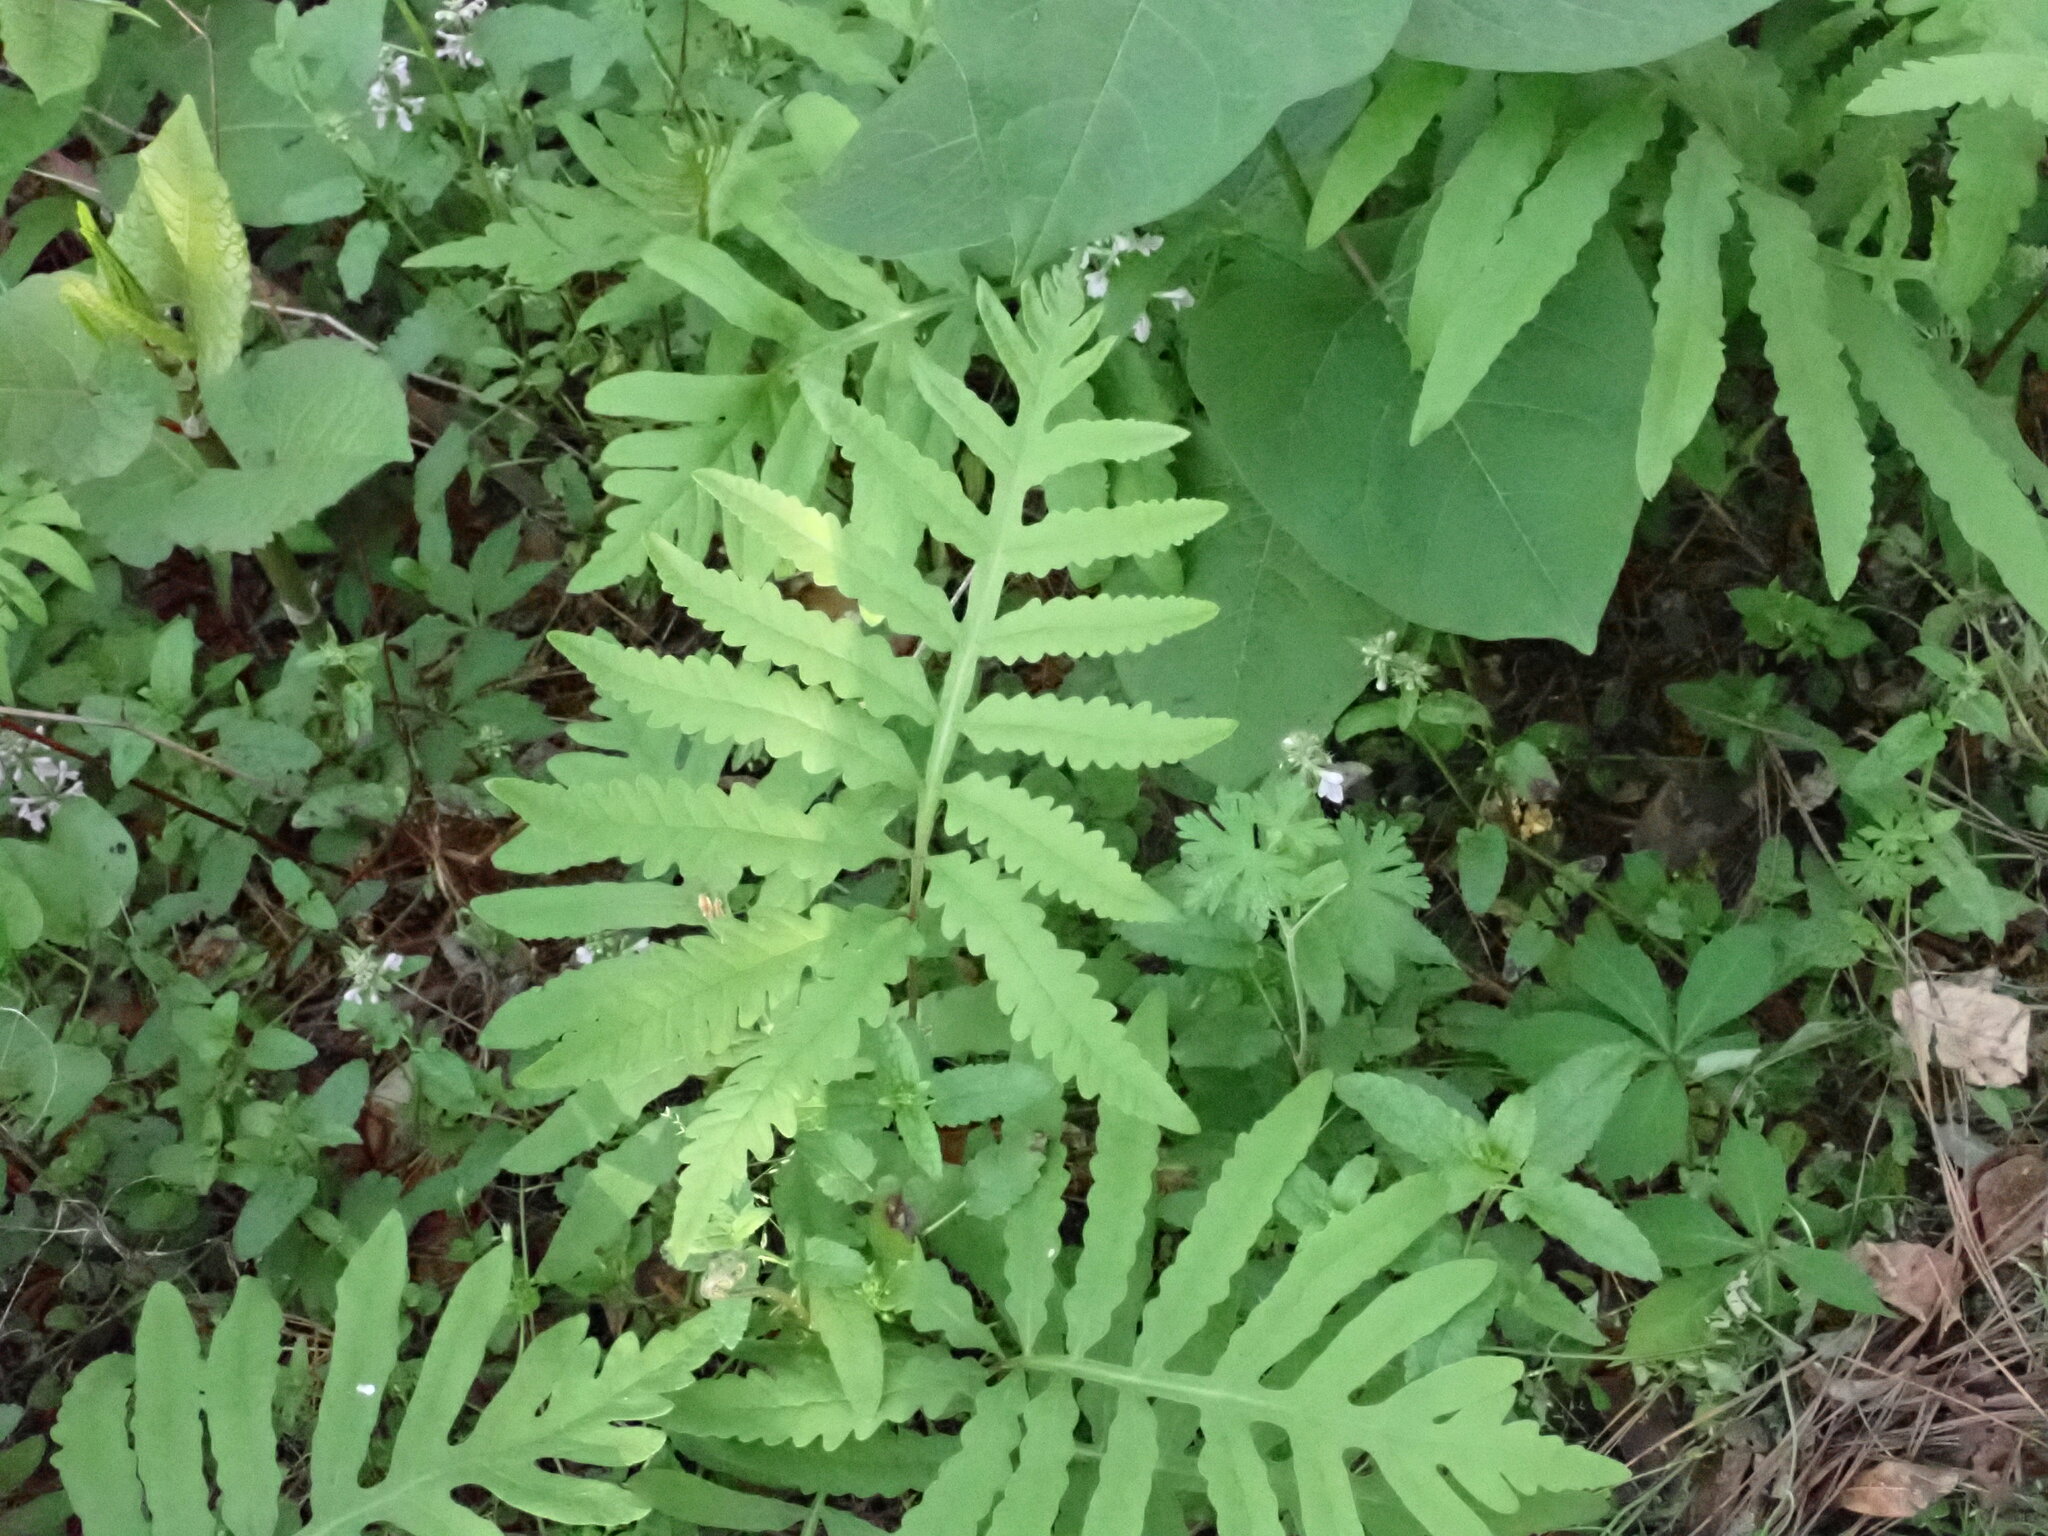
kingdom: Plantae
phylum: Tracheophyta
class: Polypodiopsida
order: Polypodiales
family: Onocleaceae
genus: Onoclea
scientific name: Onoclea sensibilis
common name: Sensitive fern
